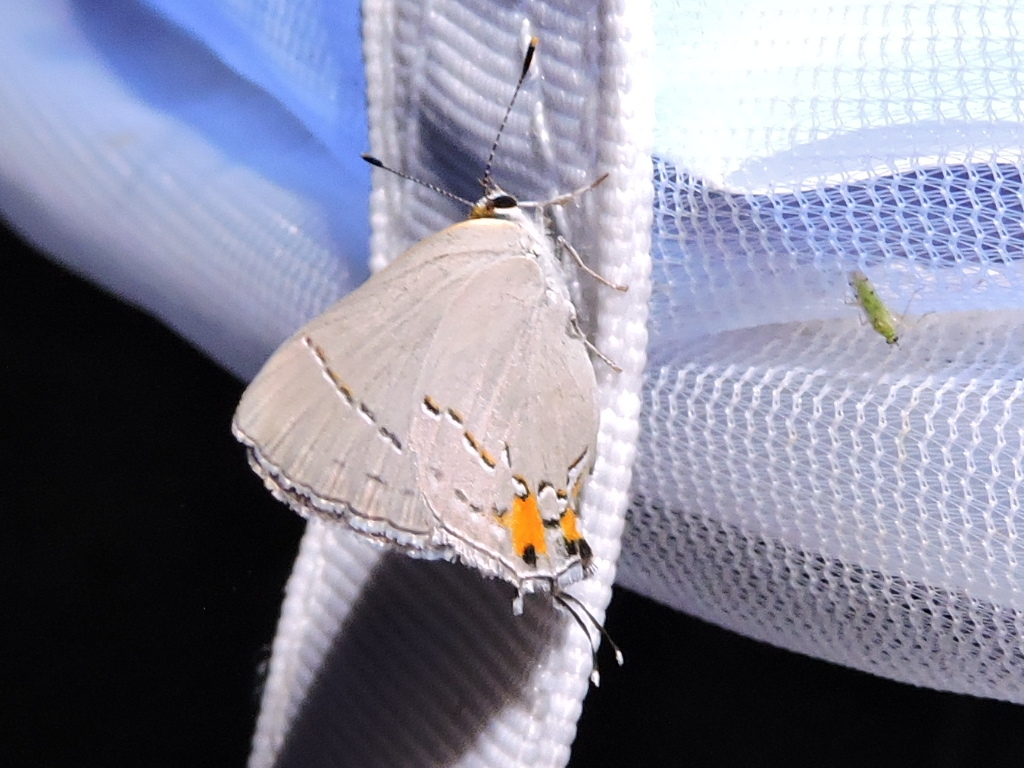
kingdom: Animalia
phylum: Arthropoda
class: Insecta
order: Lepidoptera
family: Lycaenidae
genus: Strymon
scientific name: Strymon melinus
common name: Gray hairstreak
